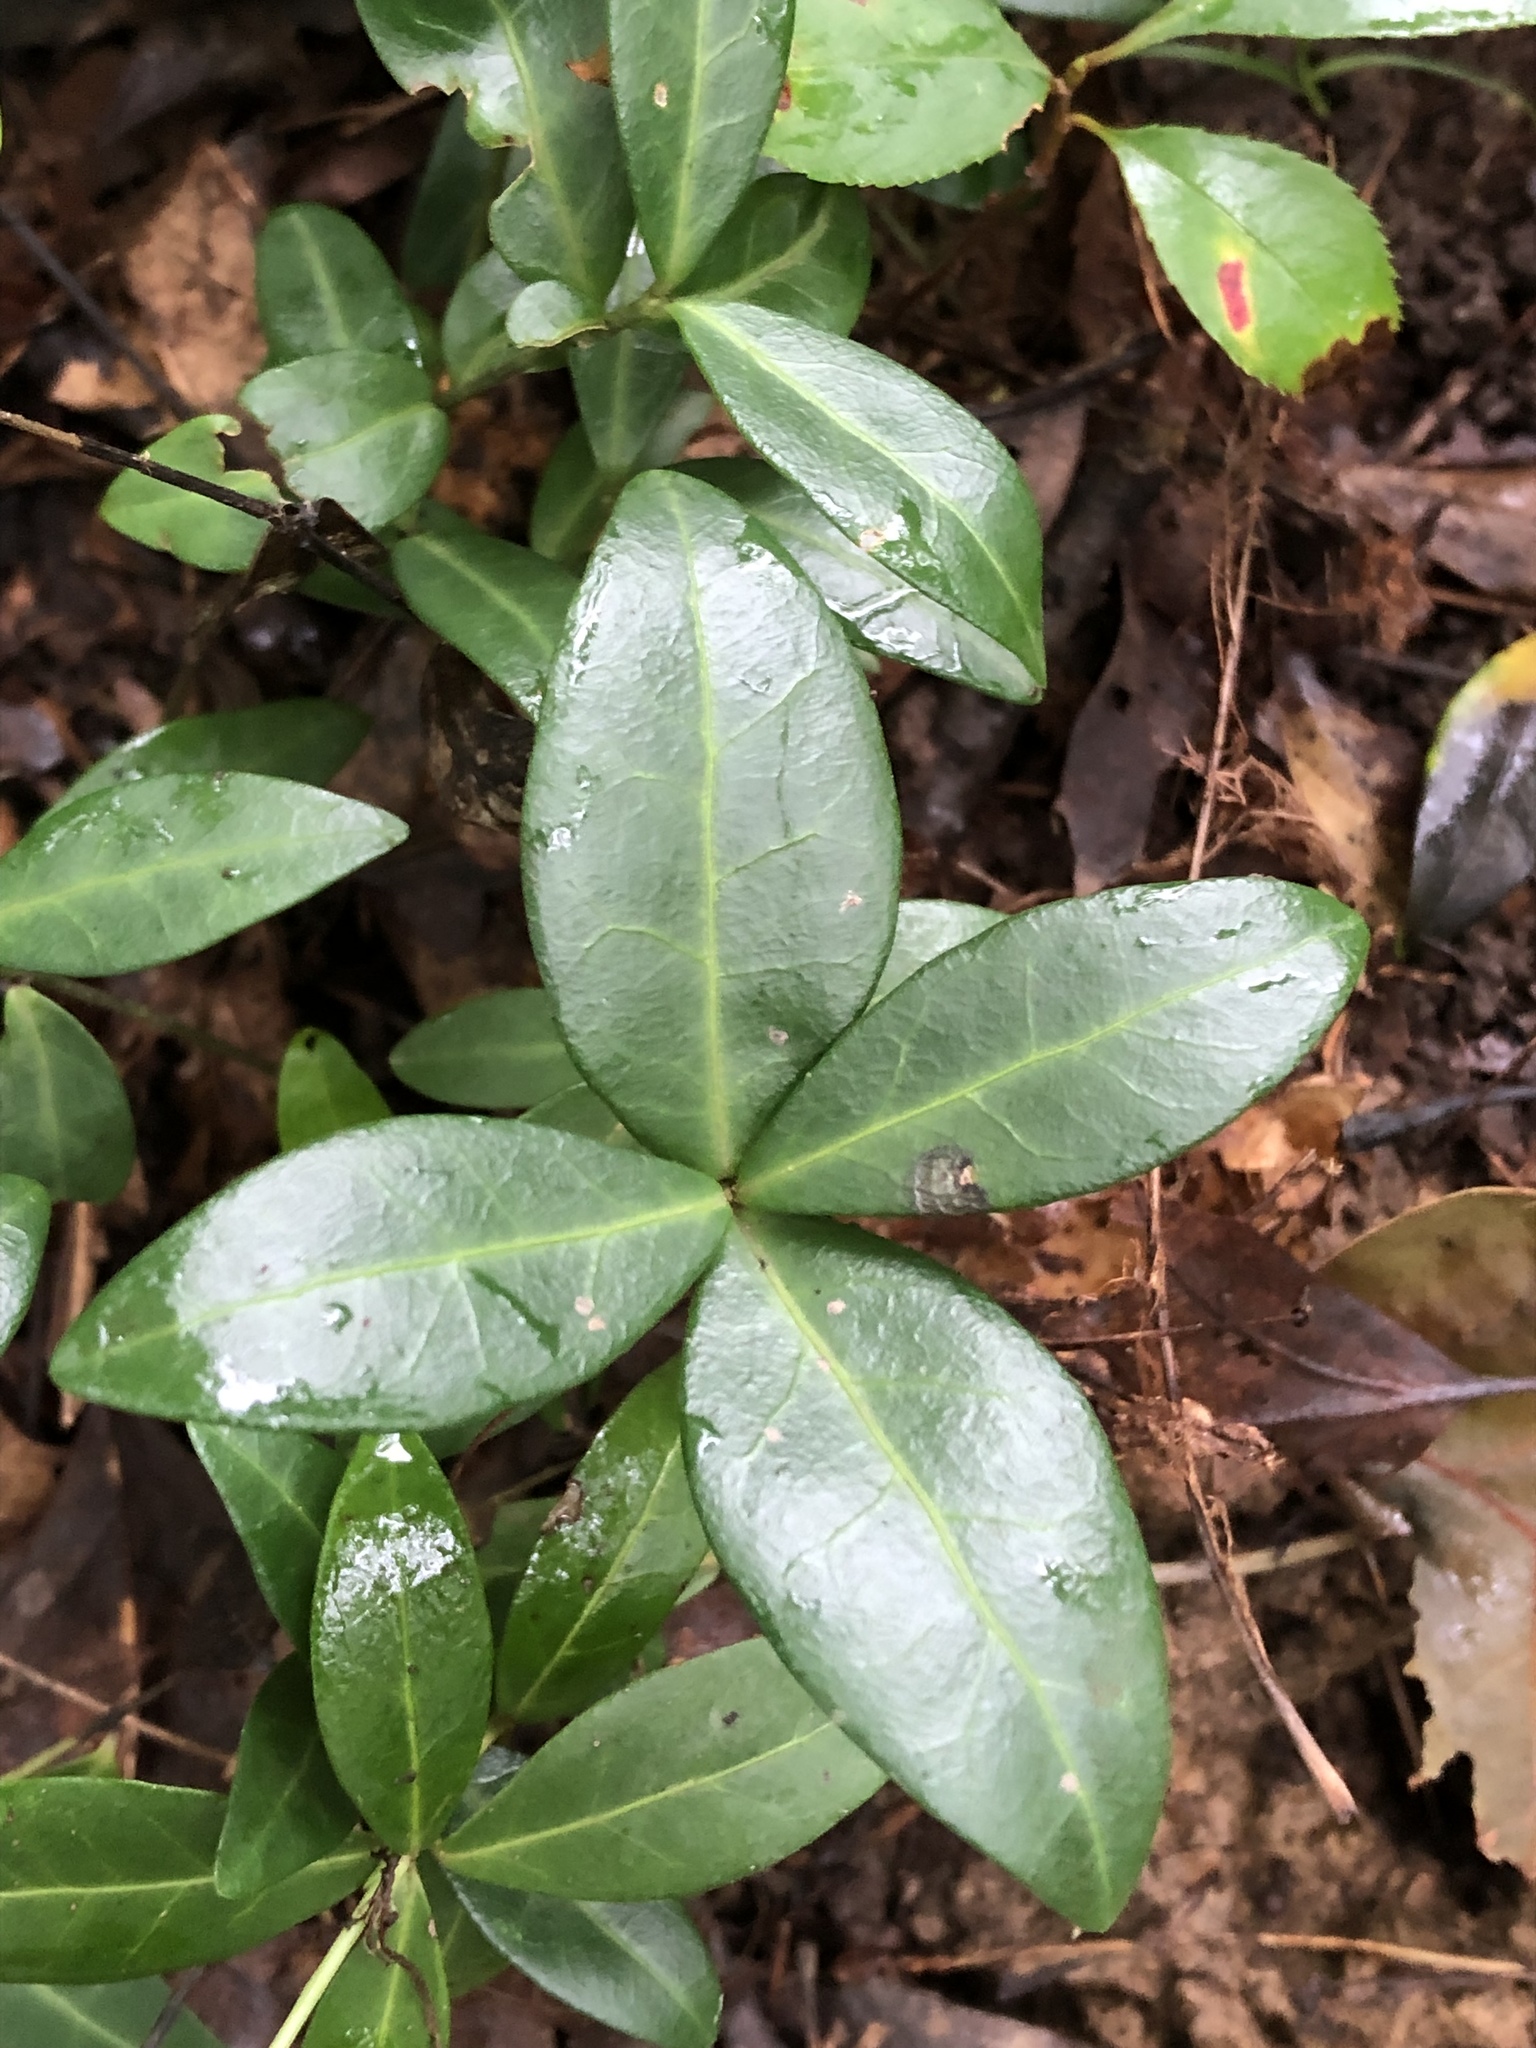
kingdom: Plantae
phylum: Tracheophyta
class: Magnoliopsida
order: Gentianales
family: Apocynaceae
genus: Vinca
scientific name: Vinca minor
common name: Lesser periwinkle
